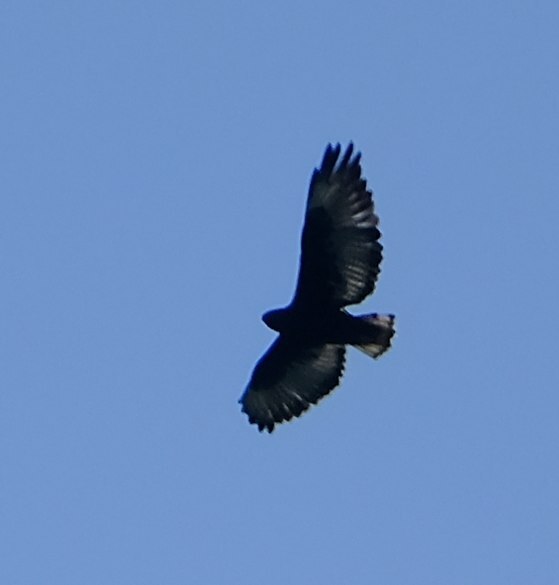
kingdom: Animalia
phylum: Chordata
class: Aves
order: Accipitriformes
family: Accipitridae
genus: Buteo
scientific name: Buteo augur
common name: Augur buzzard
